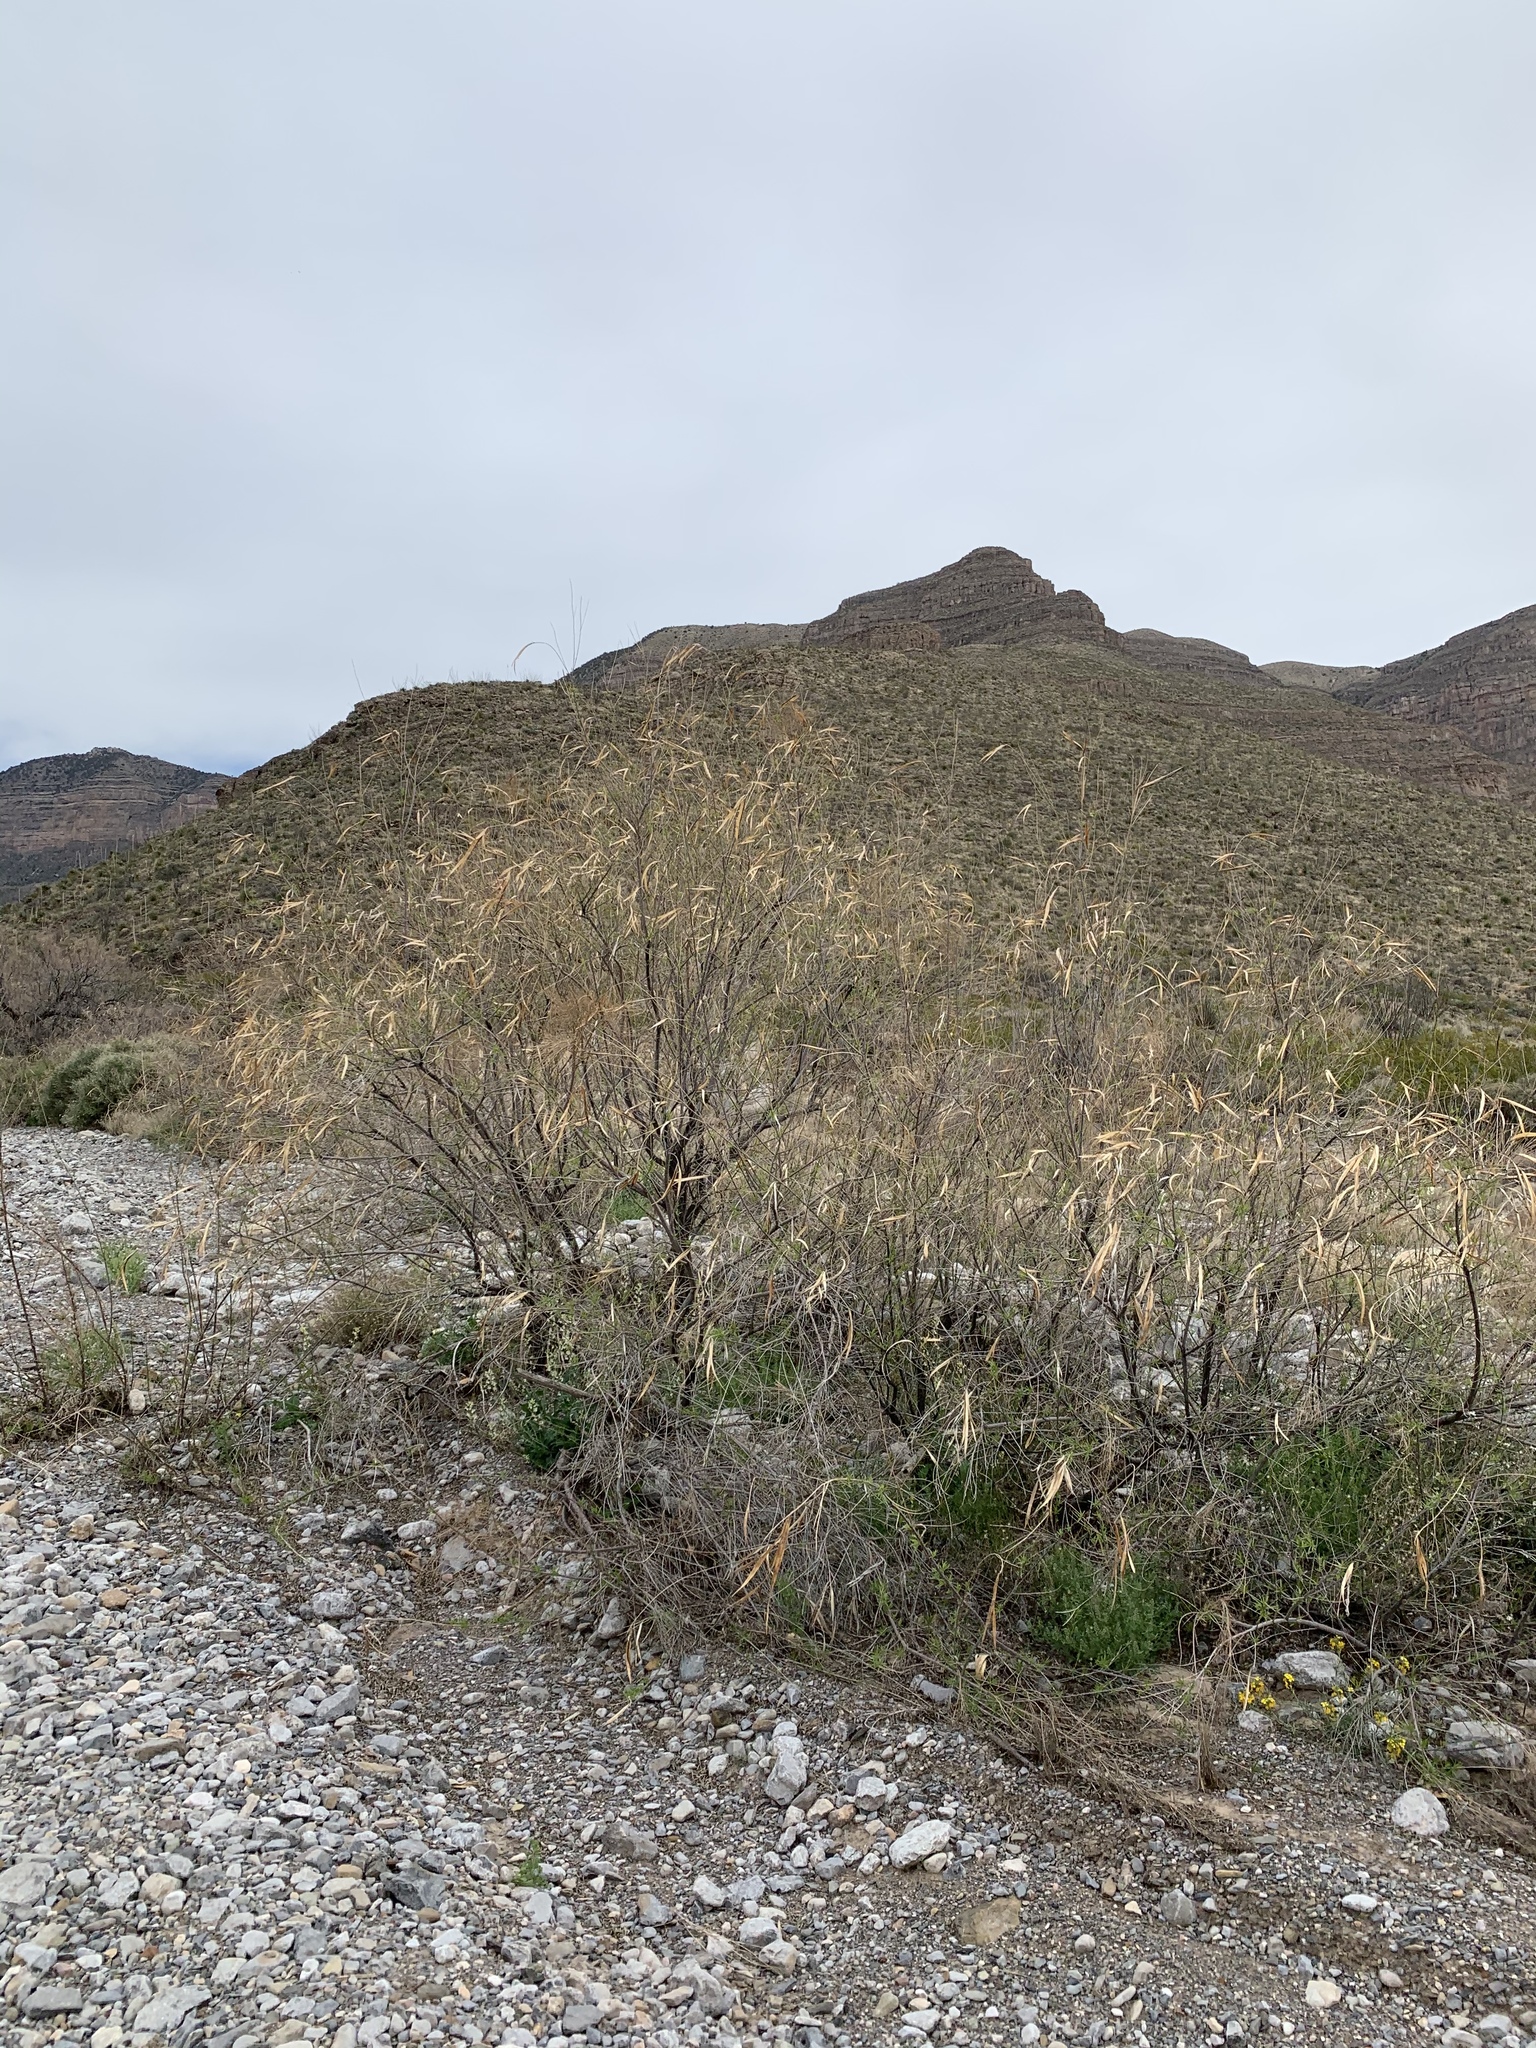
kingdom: Plantae
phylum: Tracheophyta
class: Magnoliopsida
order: Lamiales
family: Bignoniaceae
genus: Chilopsis
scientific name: Chilopsis linearis
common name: Desert-willow
